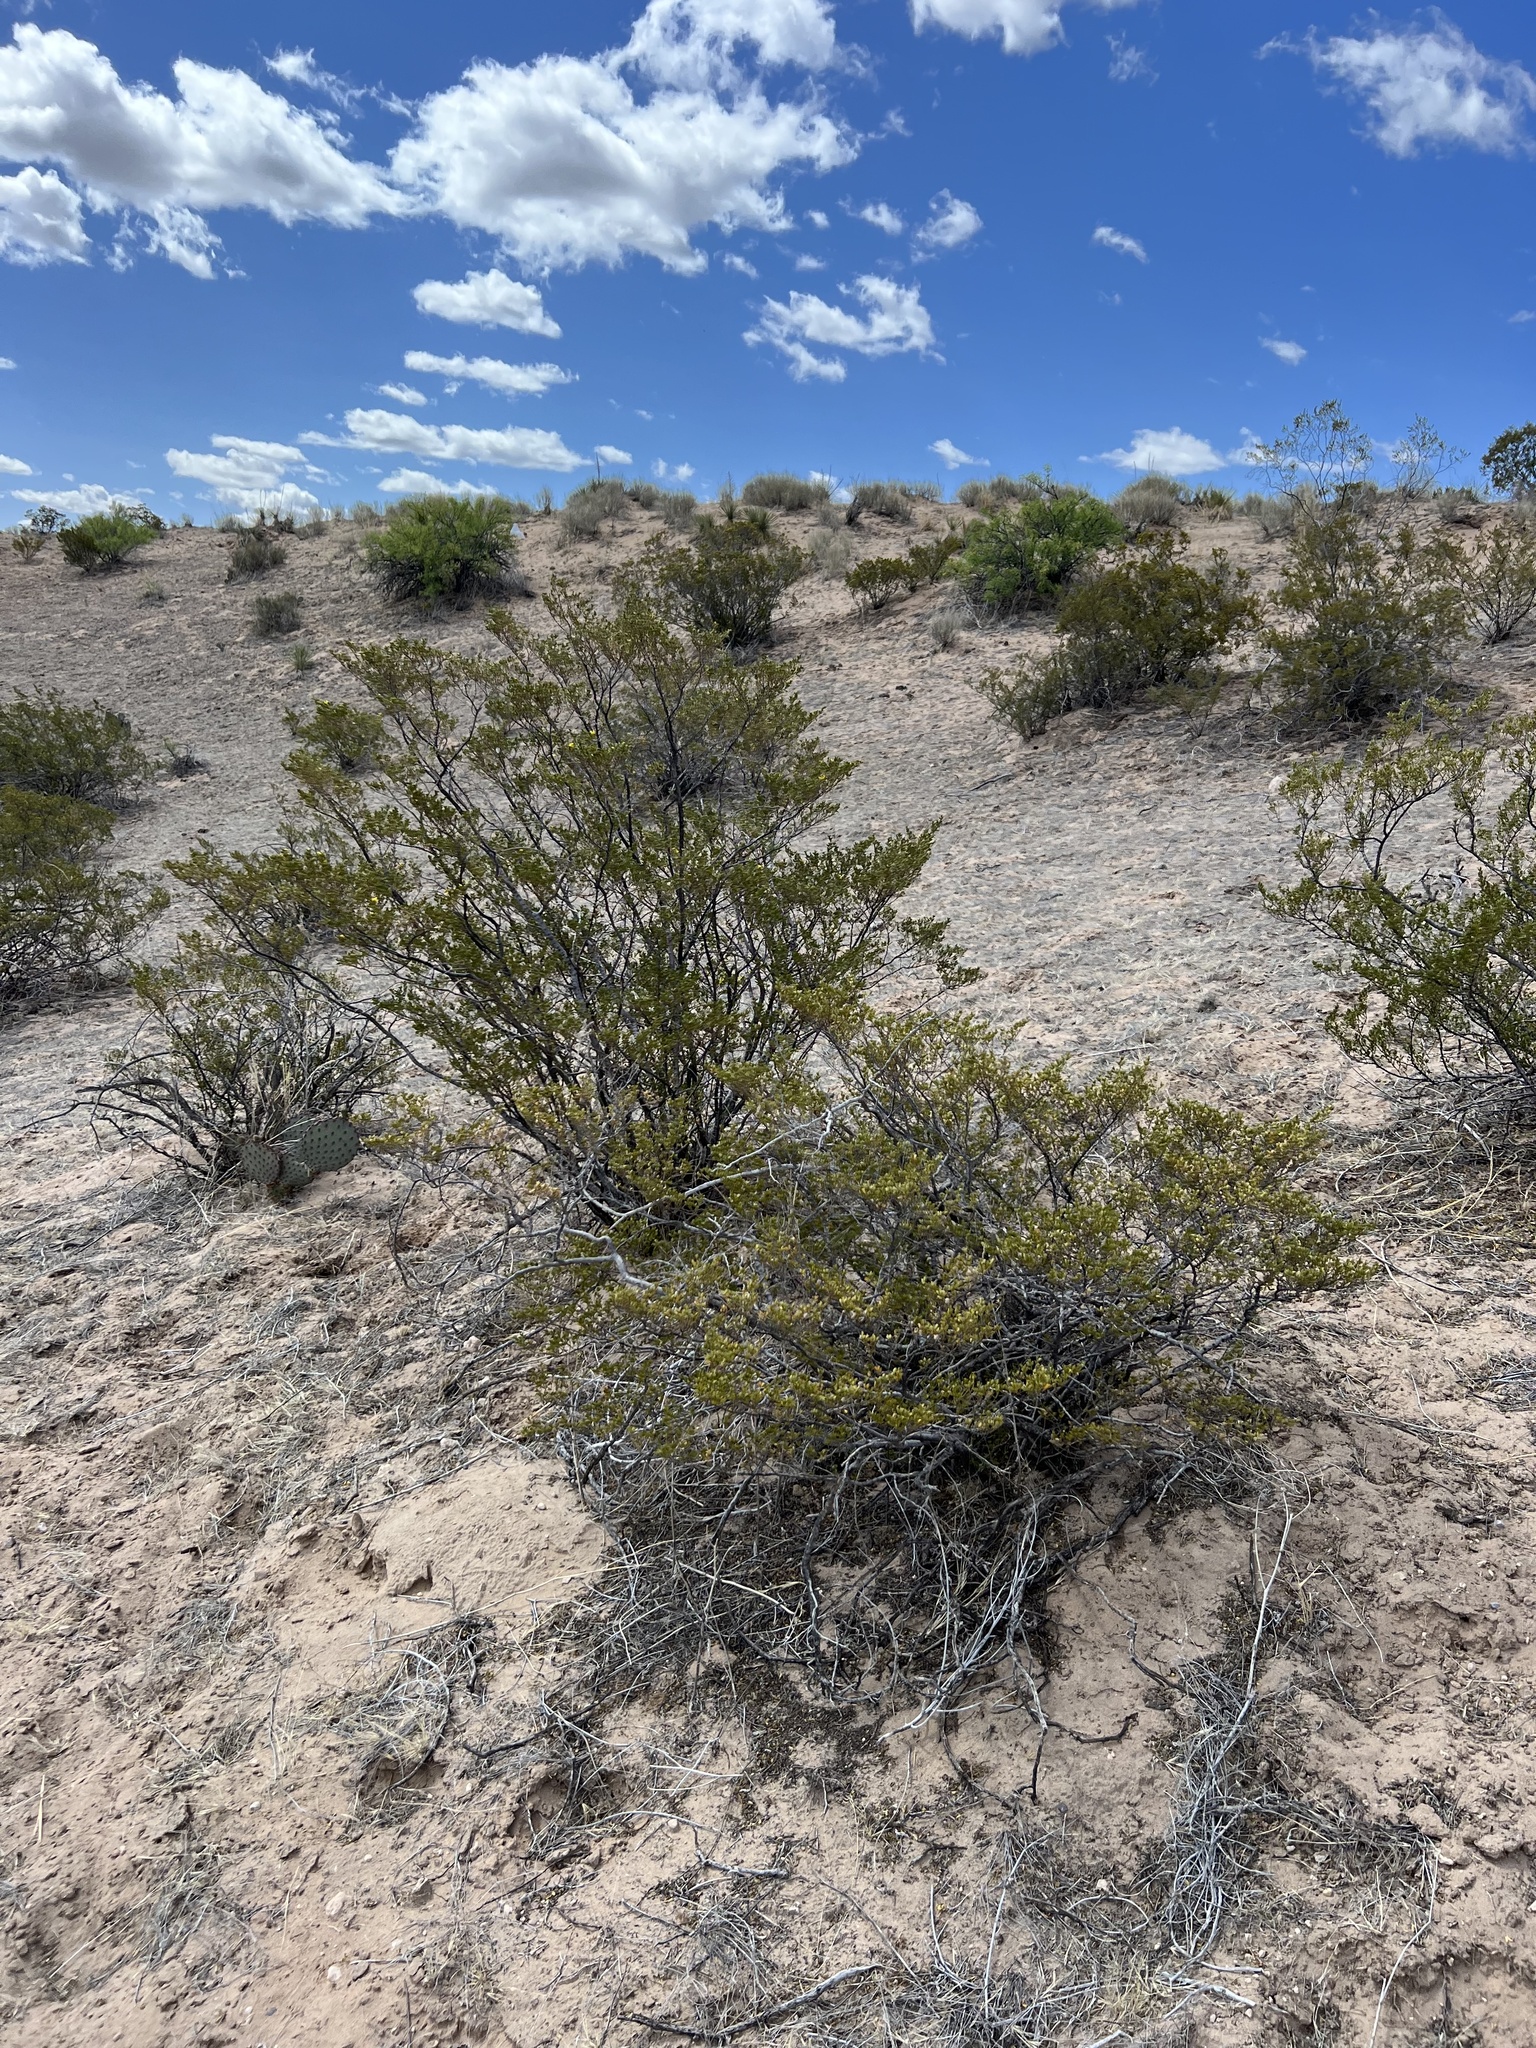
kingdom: Plantae
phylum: Tracheophyta
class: Magnoliopsida
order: Zygophyllales
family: Zygophyllaceae
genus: Larrea
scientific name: Larrea tridentata
